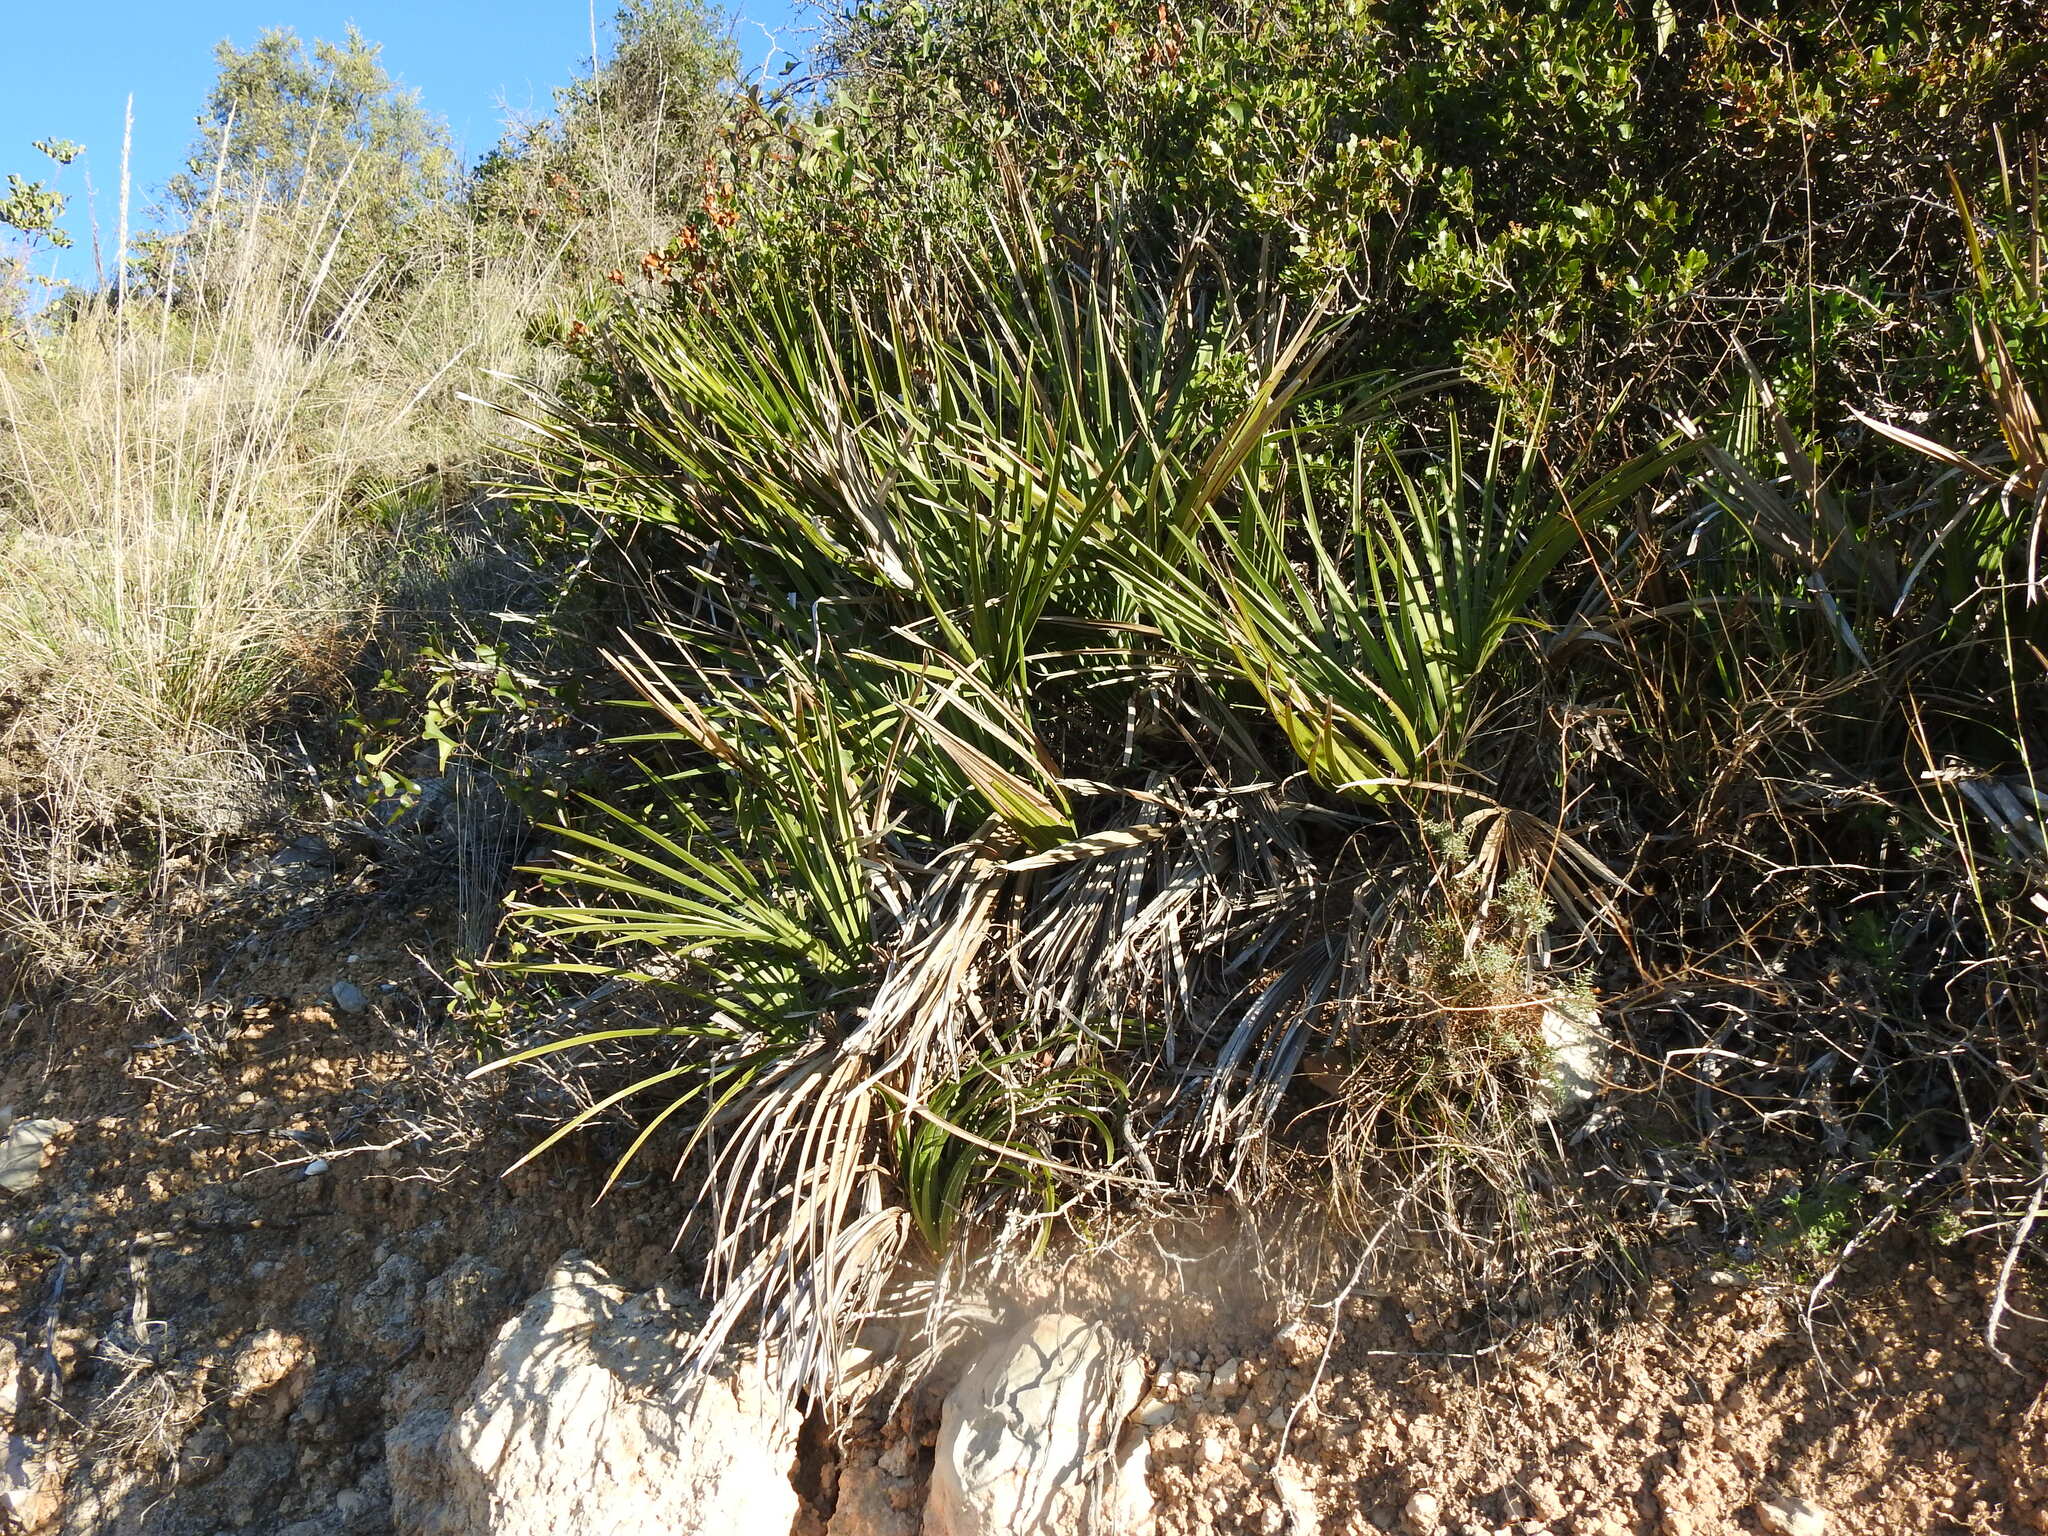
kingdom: Plantae
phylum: Tracheophyta
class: Liliopsida
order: Arecales
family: Arecaceae
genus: Chamaerops
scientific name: Chamaerops humilis
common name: Dwarf fan palm
